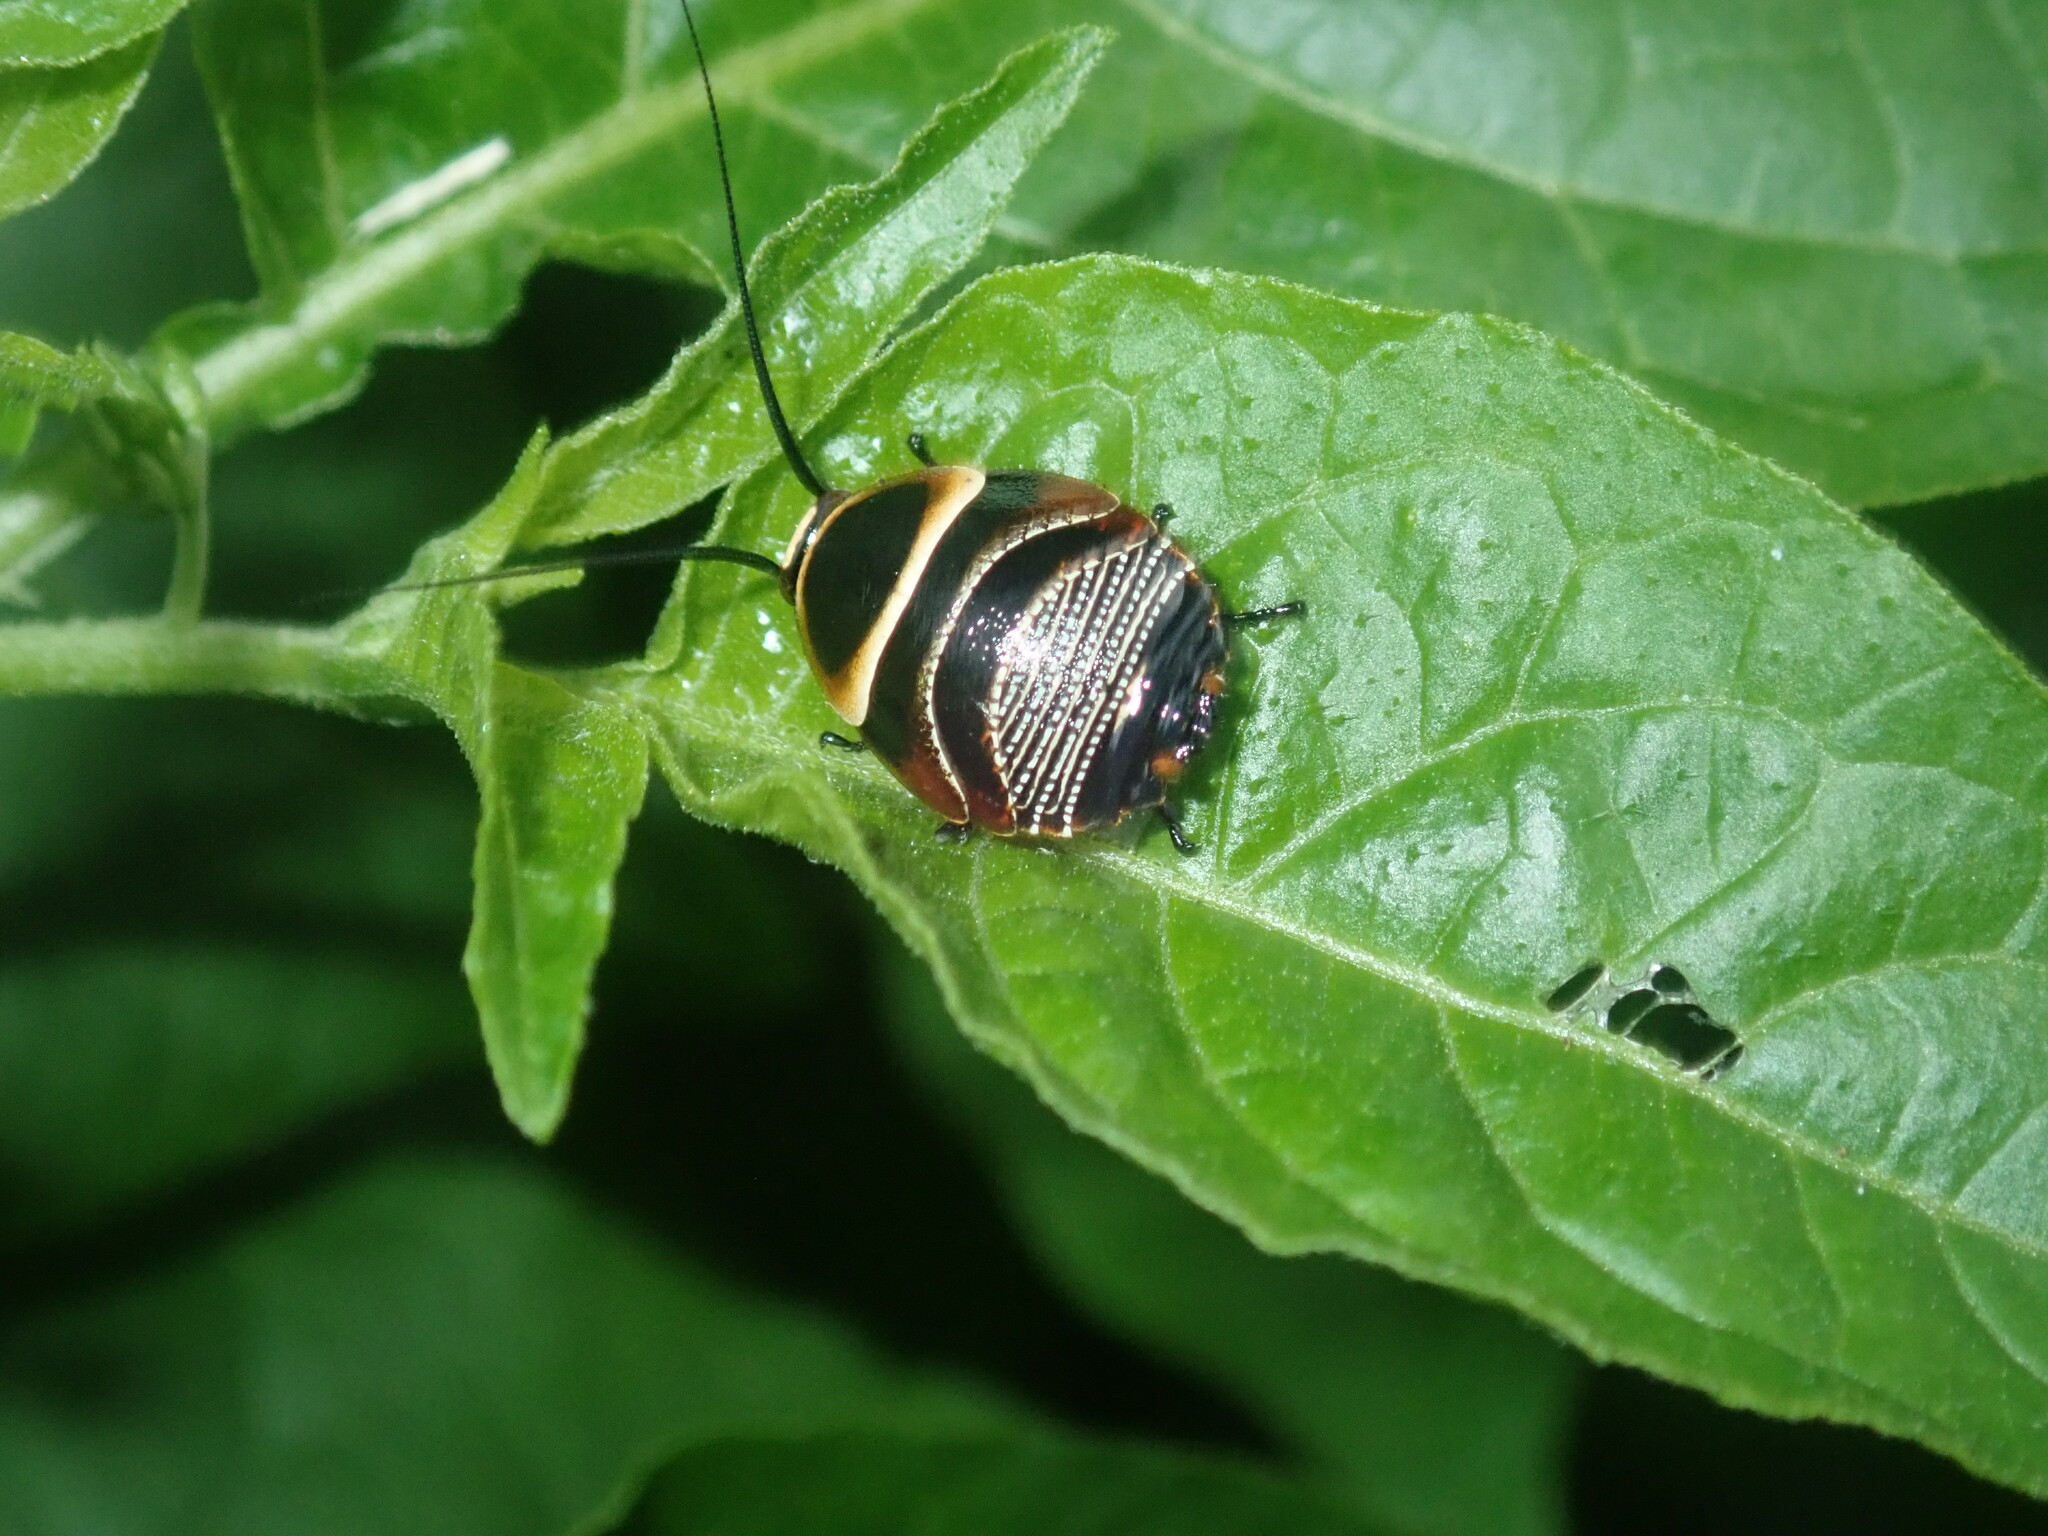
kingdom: Animalia
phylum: Arthropoda
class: Insecta
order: Blattodea
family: Ectobiidae
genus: Ellipsidion
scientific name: Ellipsidion australe
